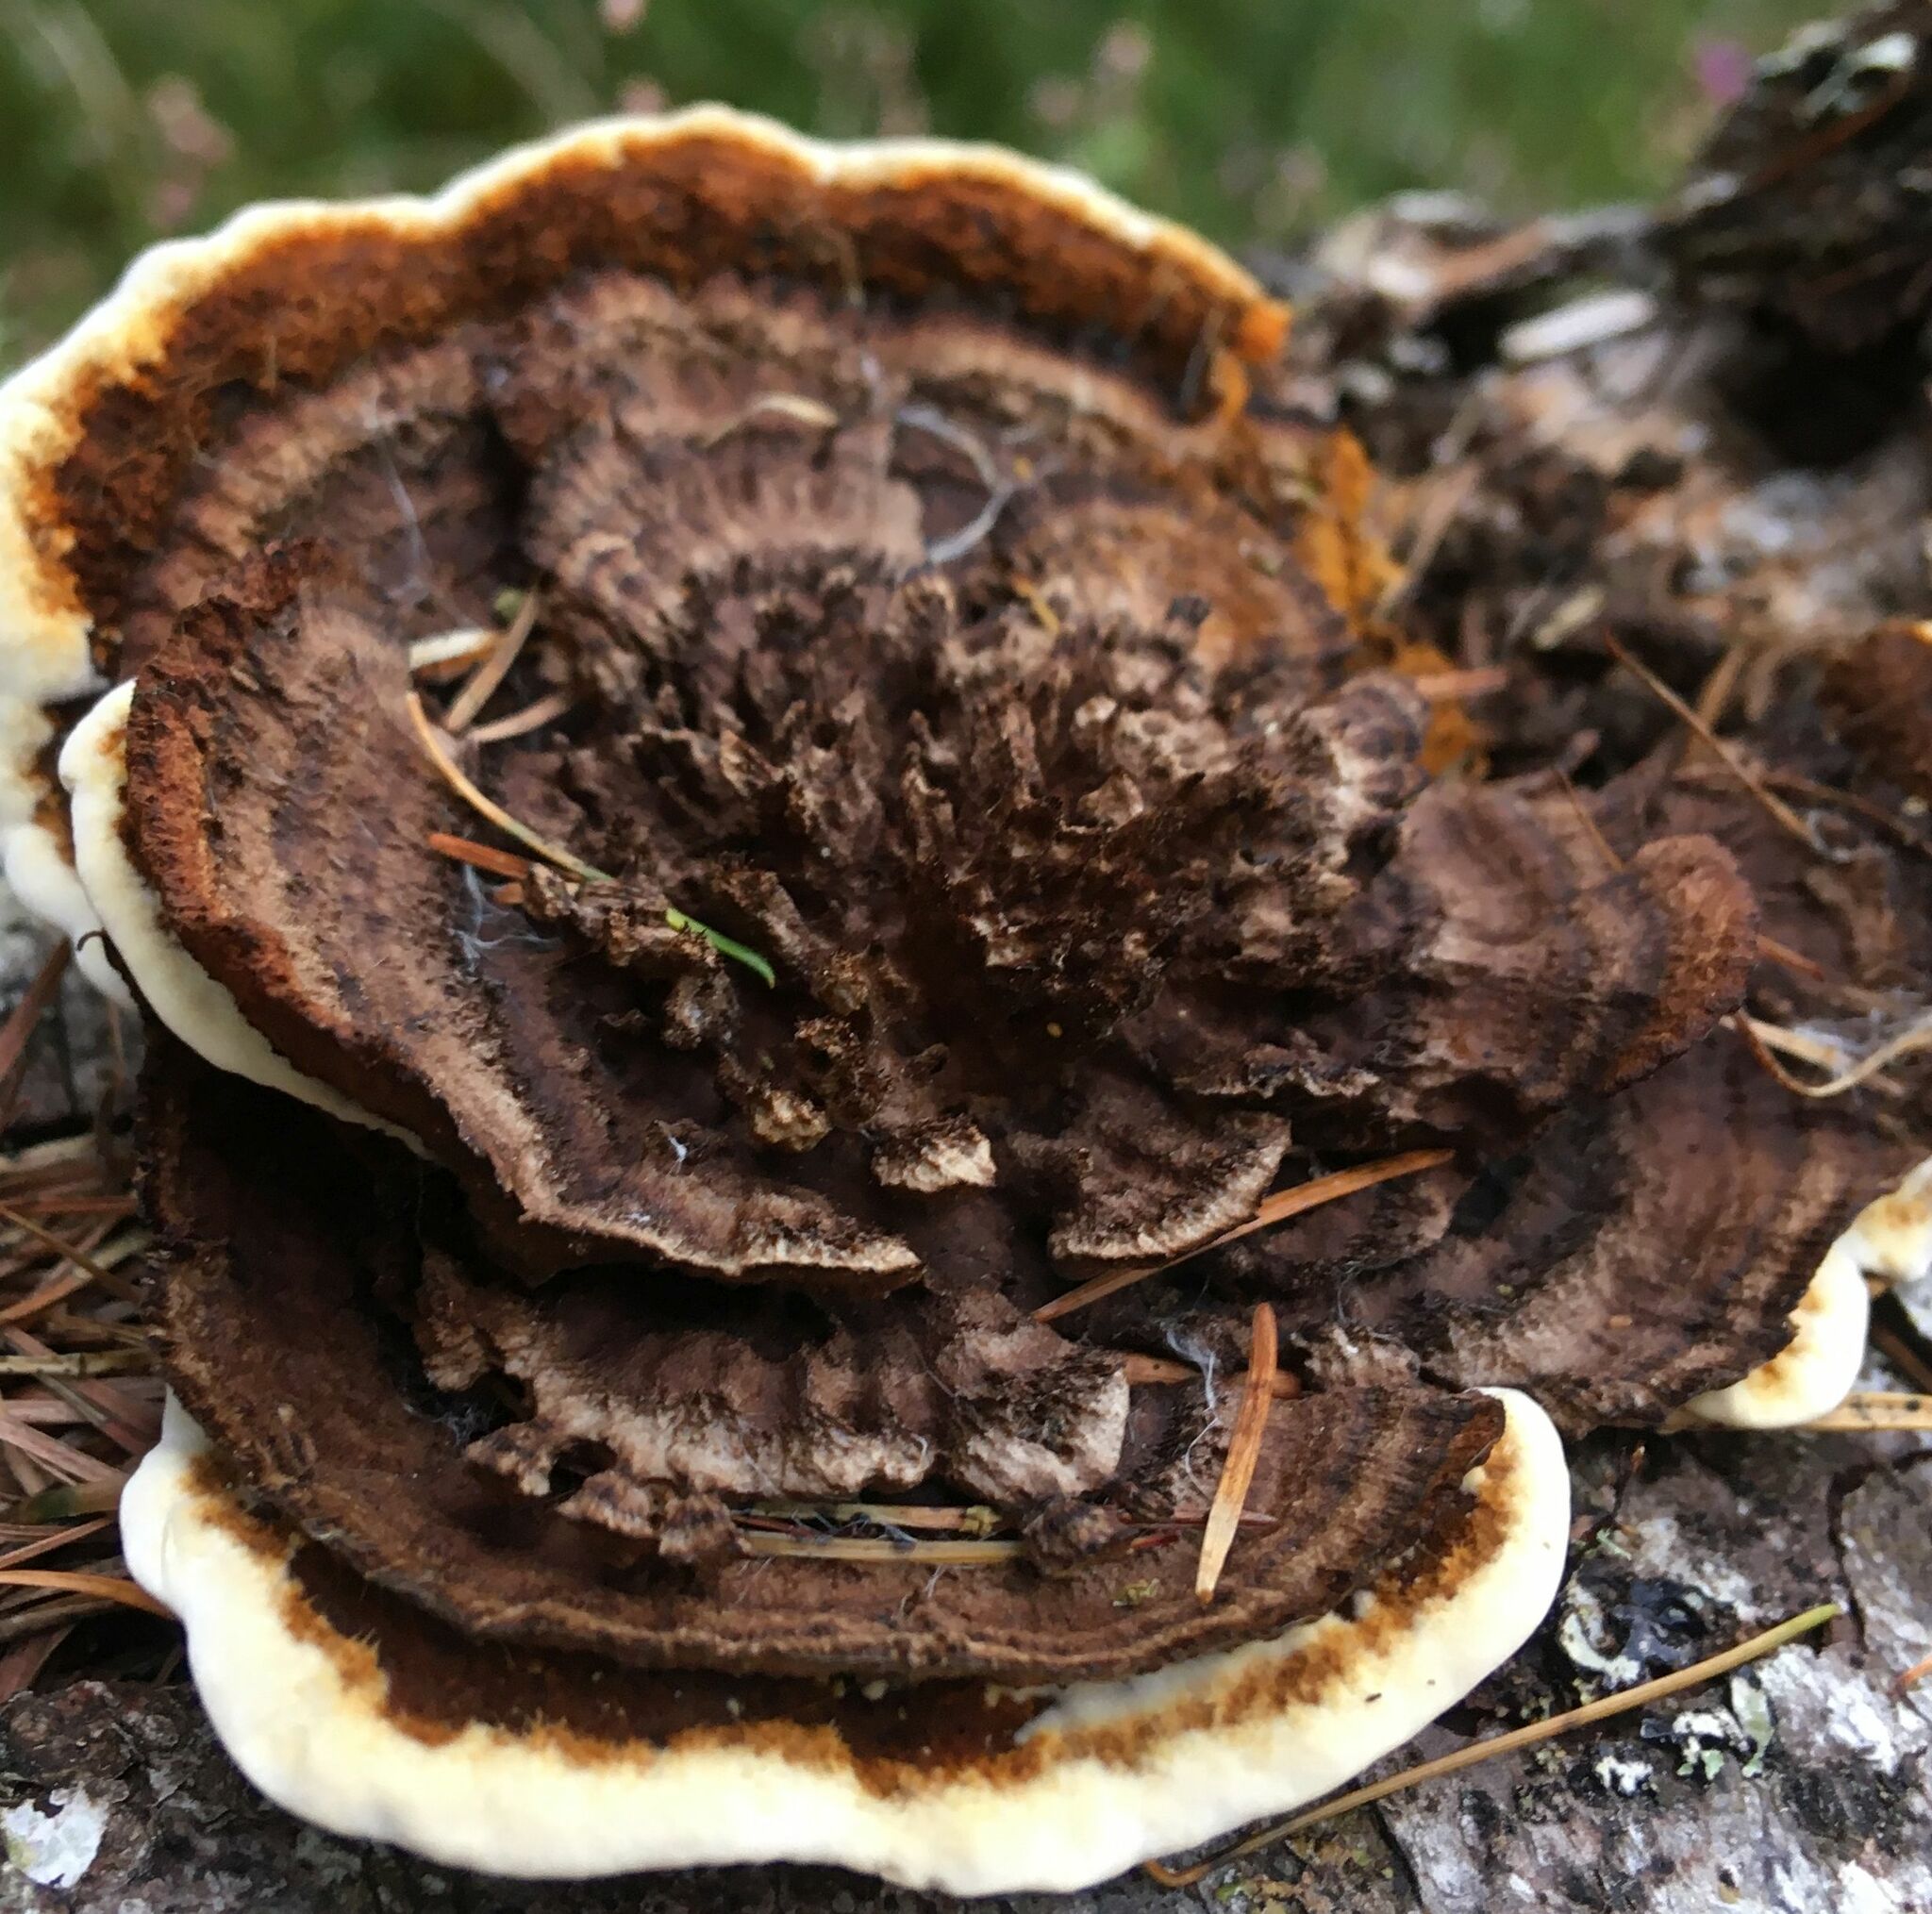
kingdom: Fungi
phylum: Basidiomycota
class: Agaricomycetes
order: Gloeophyllales
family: Gloeophyllaceae
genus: Gloeophyllum
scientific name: Gloeophyllum sepiarium
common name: Conifer mazegill
